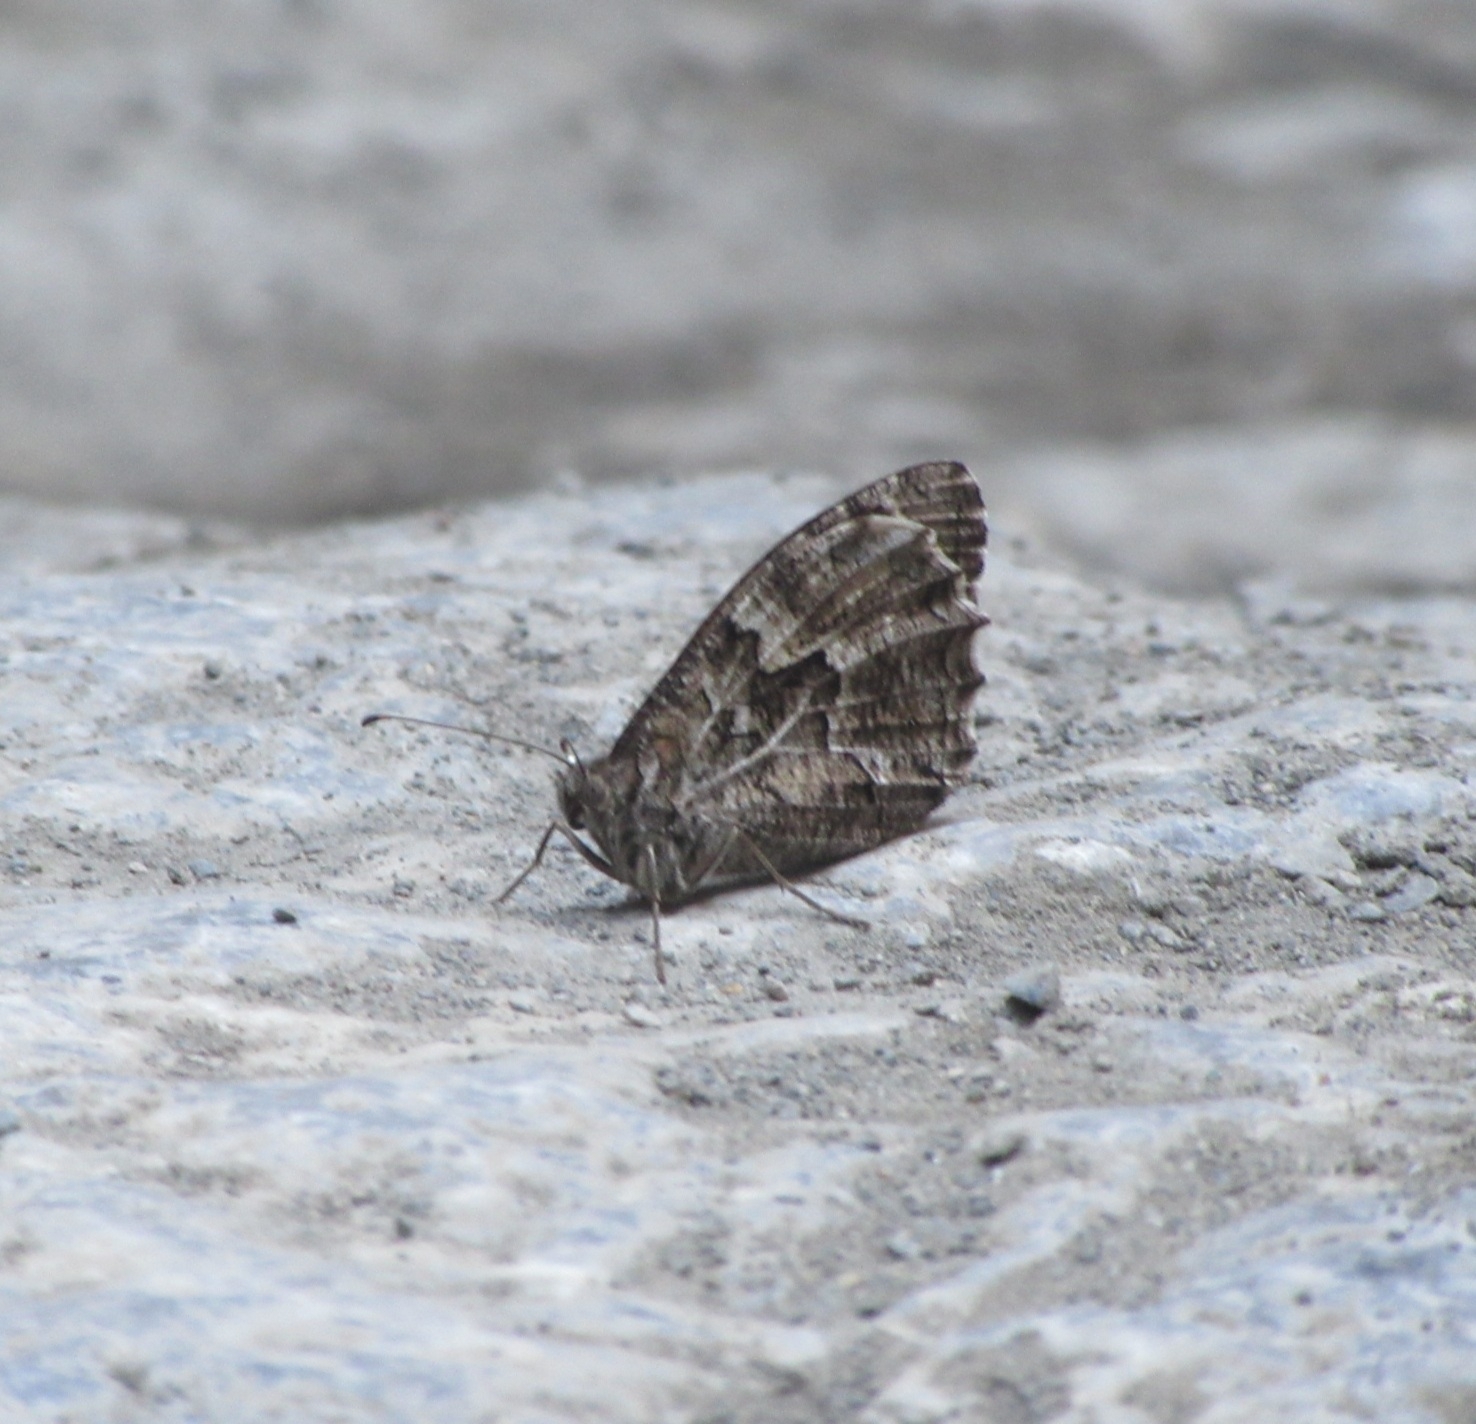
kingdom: Animalia
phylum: Arthropoda
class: Insecta
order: Lepidoptera
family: Nymphalidae
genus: Hipparchia
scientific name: Hipparchia cretica
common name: Cretan grayling
